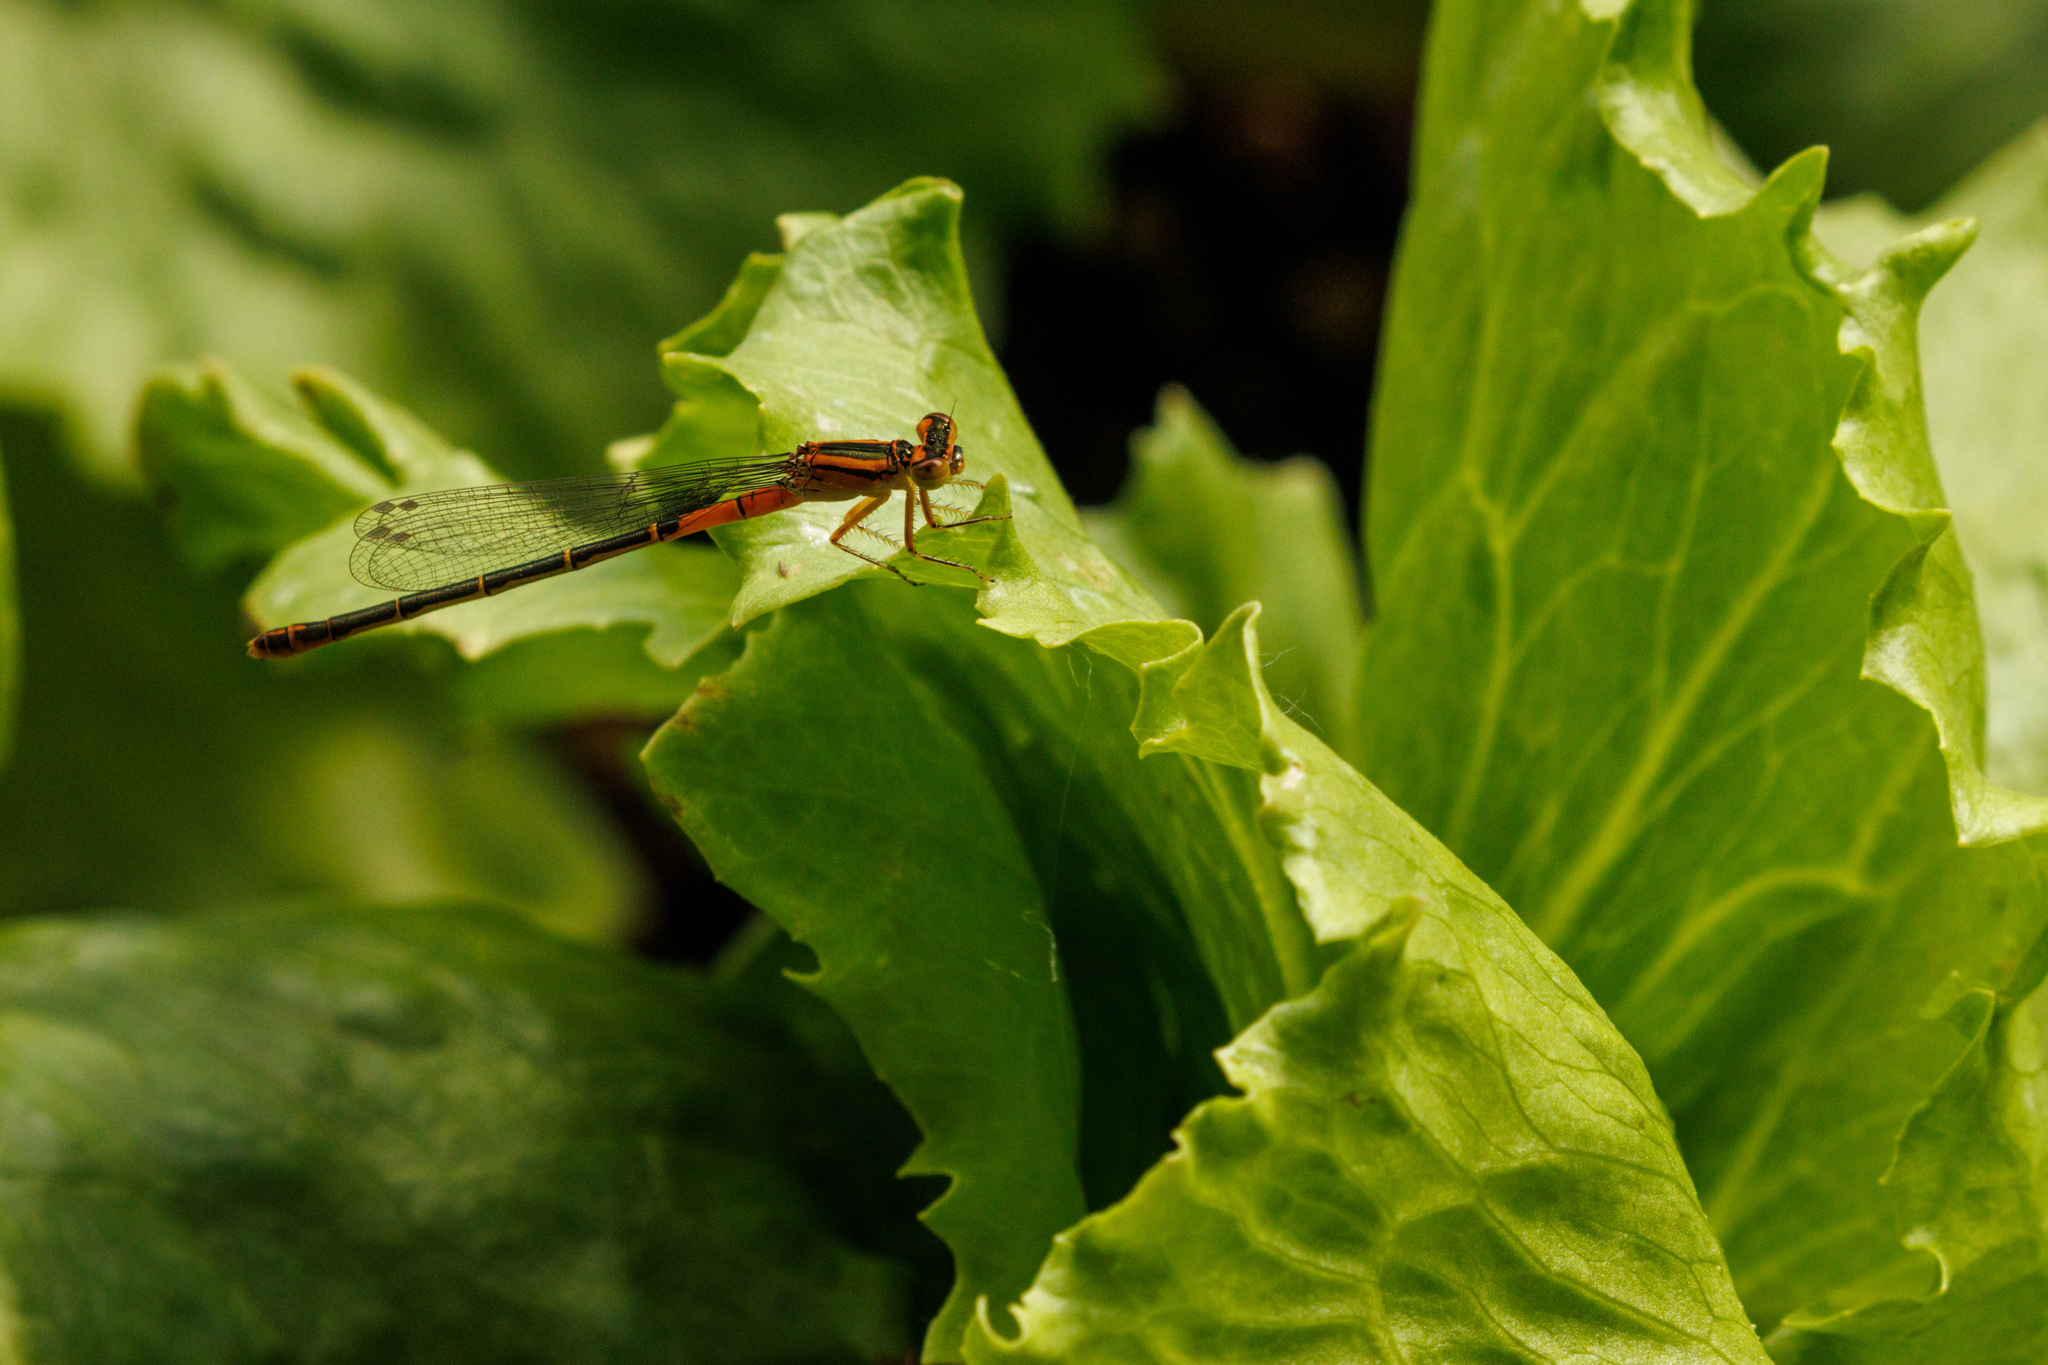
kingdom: Animalia
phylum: Arthropoda
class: Insecta
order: Odonata
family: Coenagrionidae
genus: Ischnura
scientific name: Ischnura perparva
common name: Western forktail
